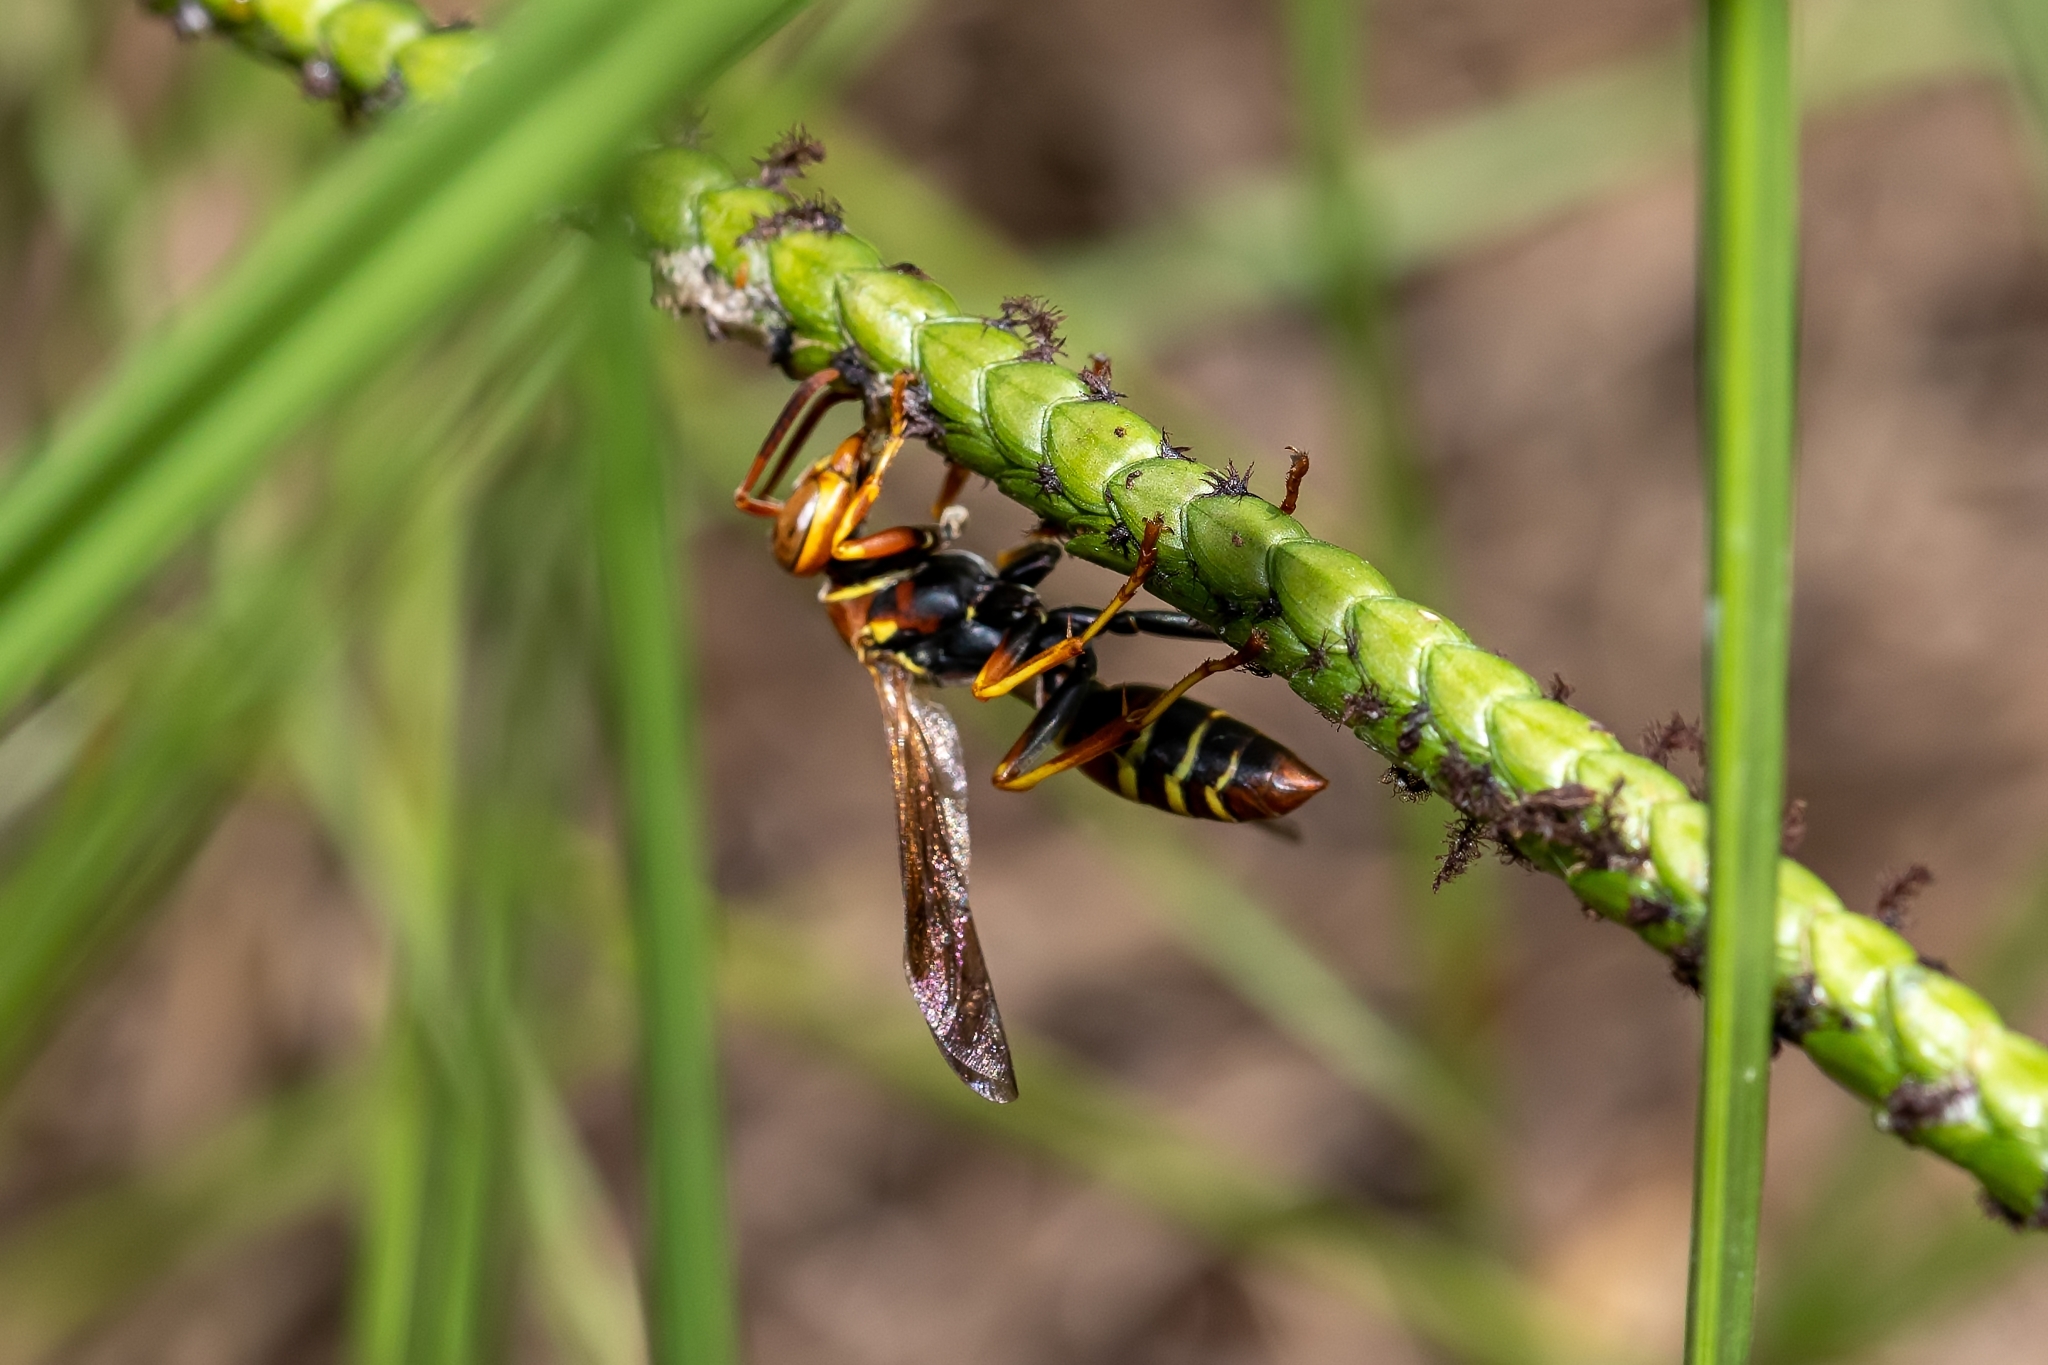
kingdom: Animalia
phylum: Arthropoda
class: Insecta
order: Hymenoptera
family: Eumenidae
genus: Polistes
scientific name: Polistes dorsalis
